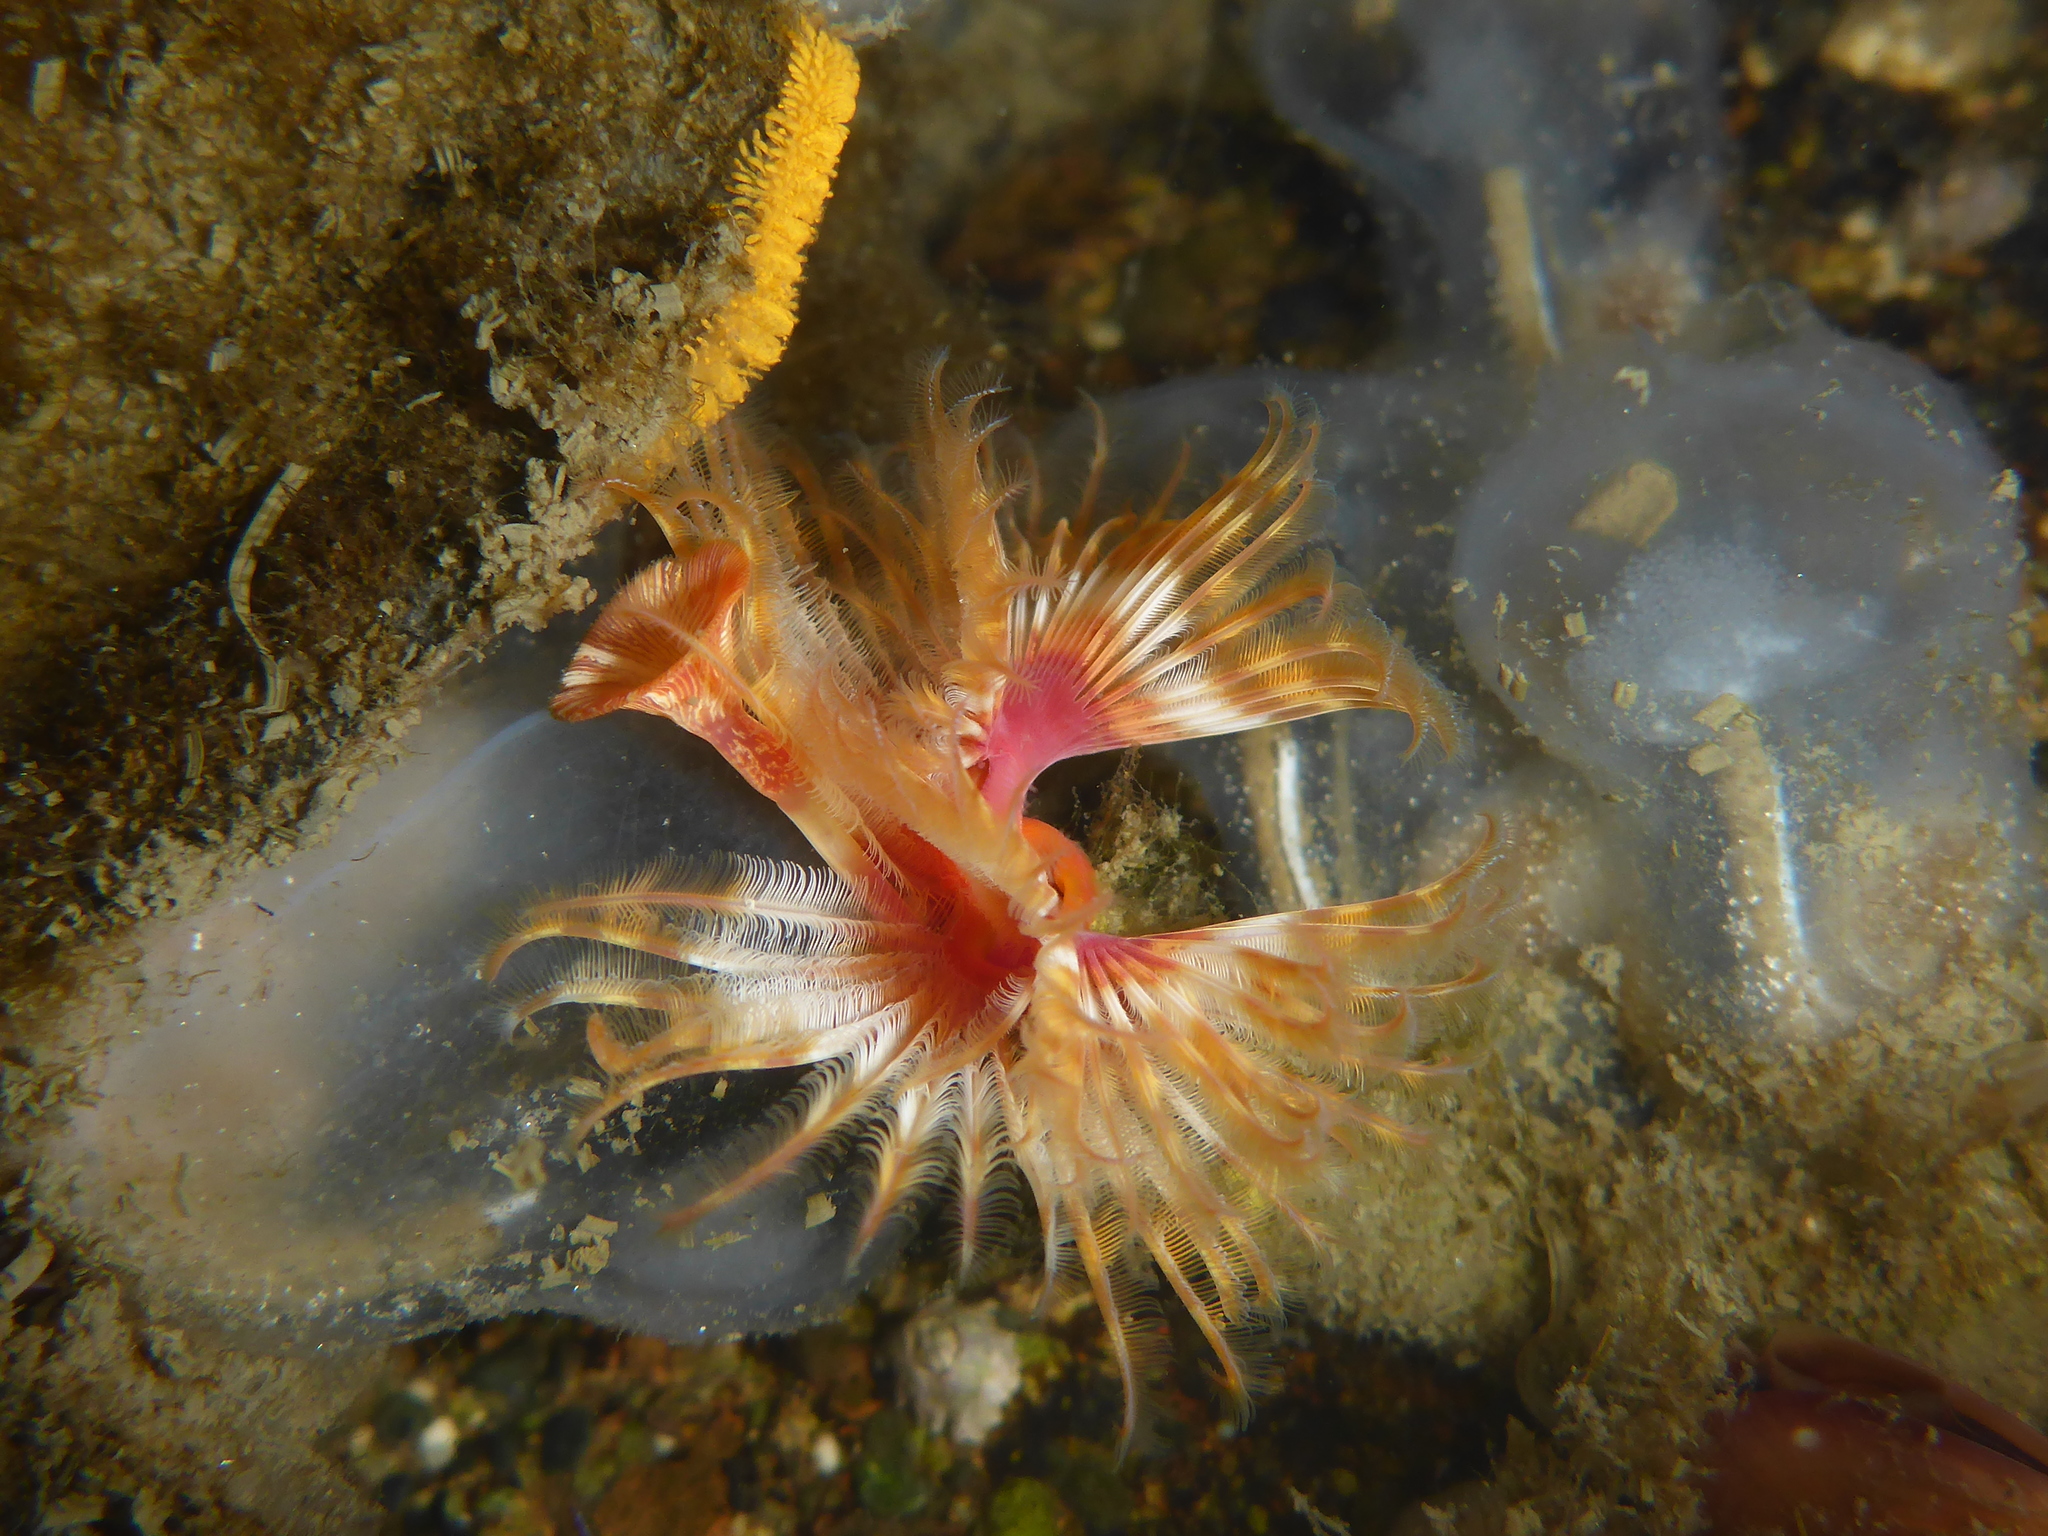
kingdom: Animalia
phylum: Annelida
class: Polychaeta
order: Sabellida
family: Serpulidae
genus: Serpula
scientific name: Serpula columbiana
